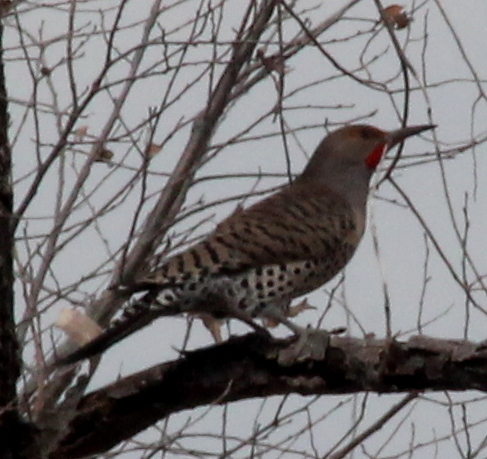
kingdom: Animalia
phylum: Chordata
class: Aves
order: Piciformes
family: Picidae
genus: Colaptes
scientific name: Colaptes auratus
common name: Northern flicker
